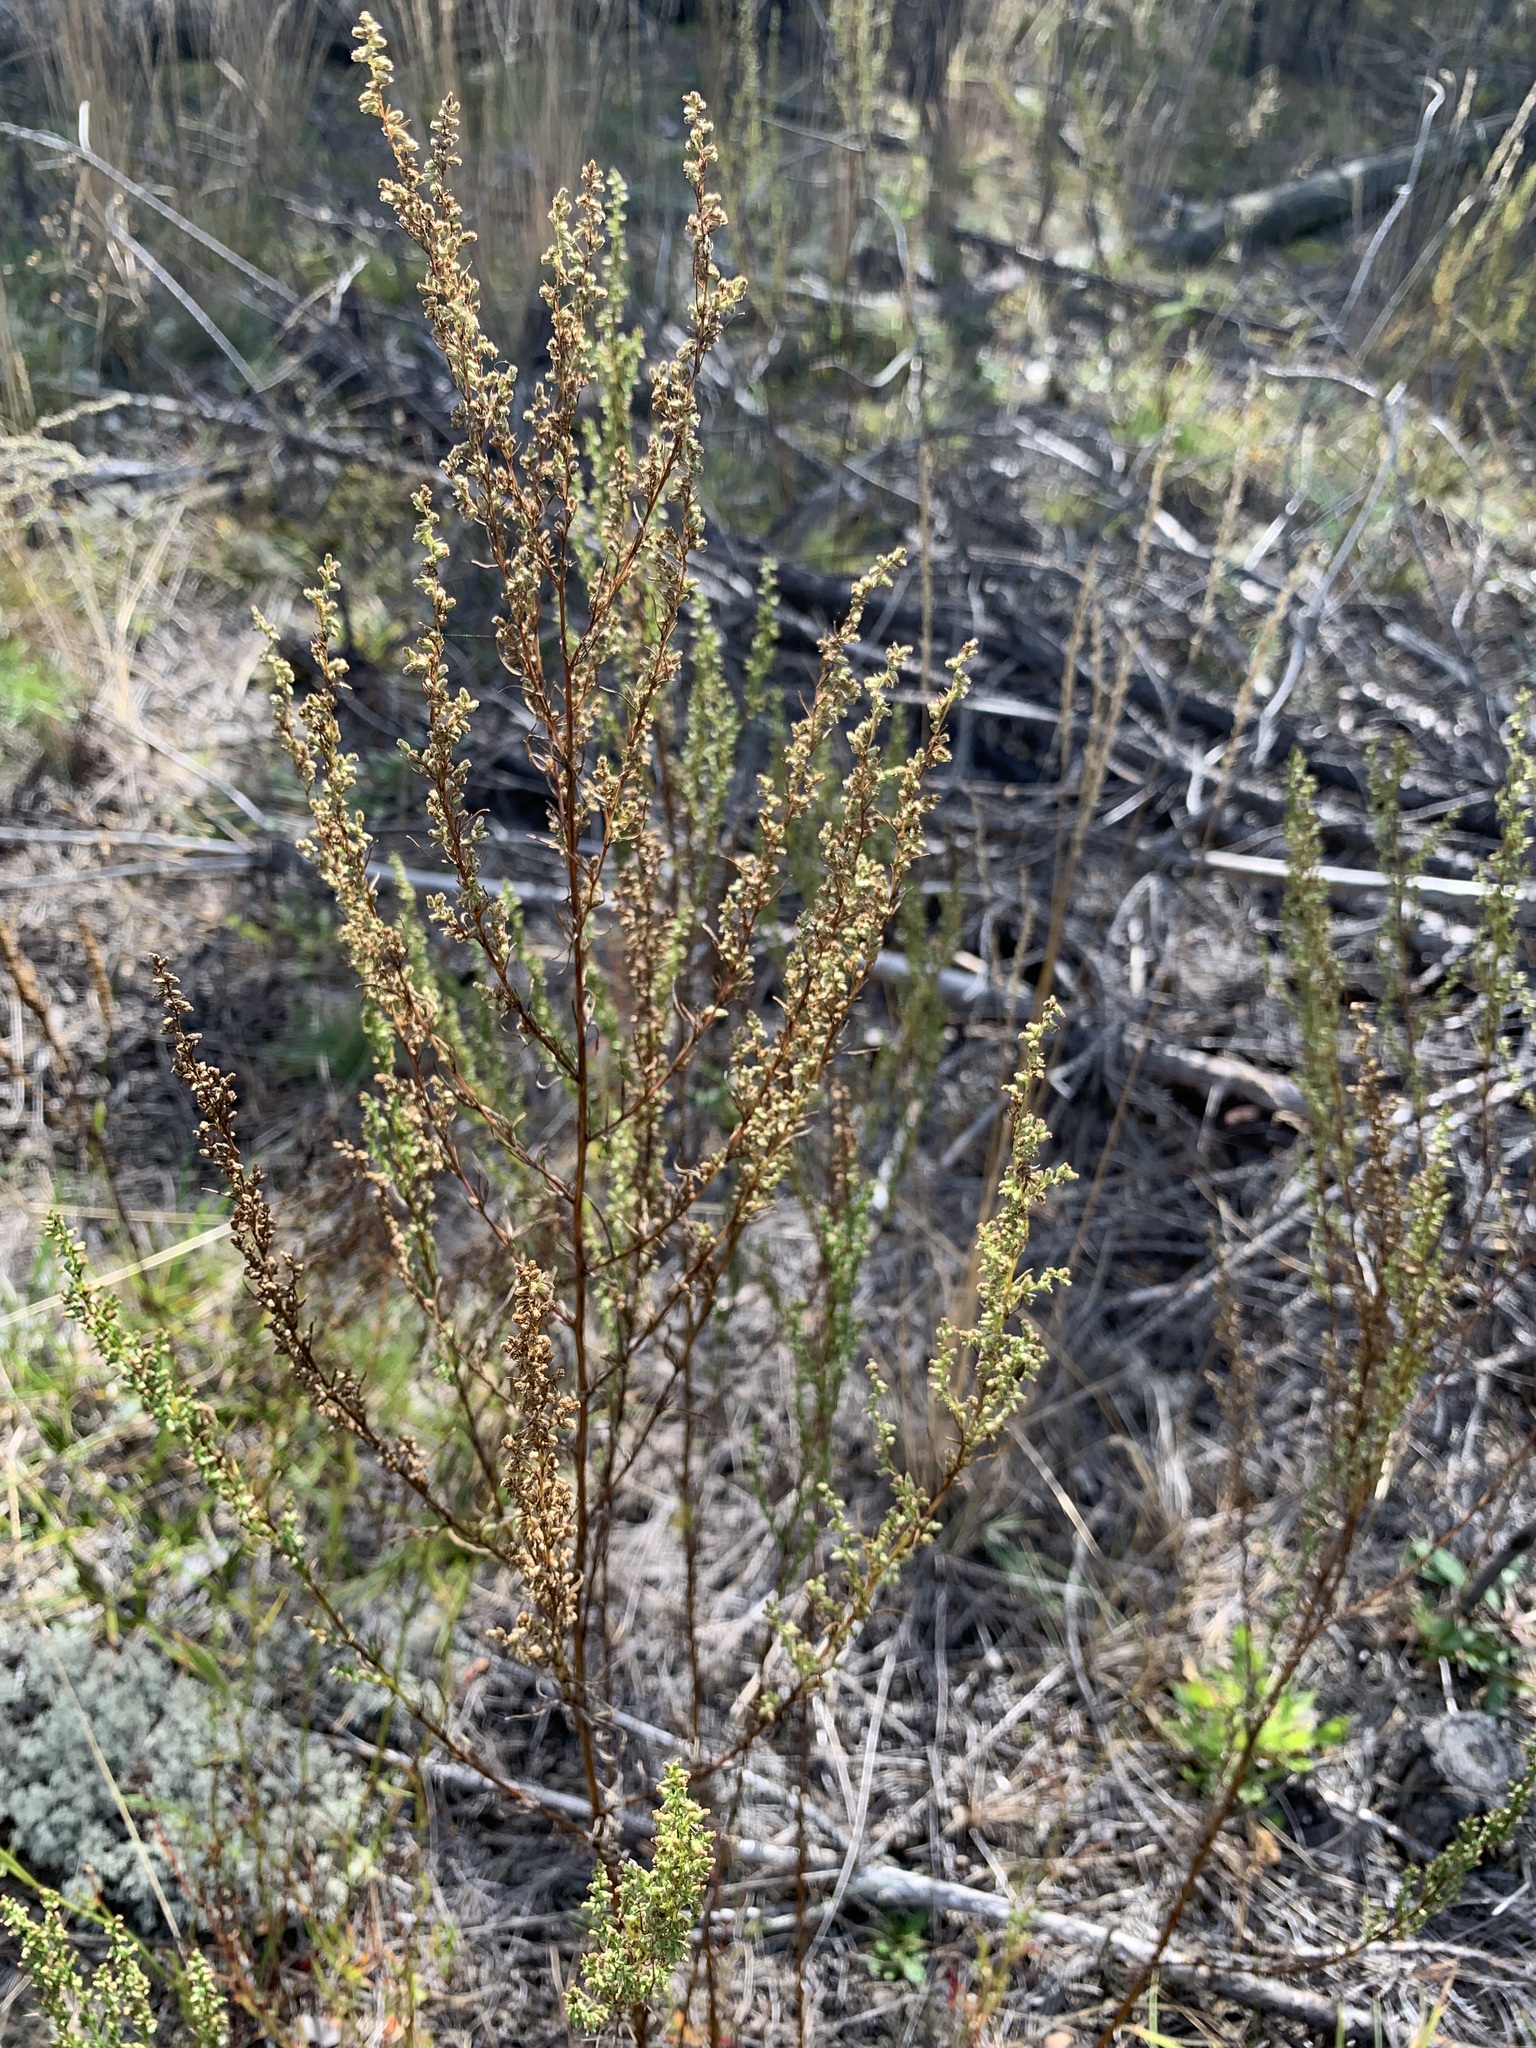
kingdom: Plantae
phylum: Tracheophyta
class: Magnoliopsida
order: Asterales
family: Asteraceae
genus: Artemisia
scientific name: Artemisia campestris
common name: Field wormwood
